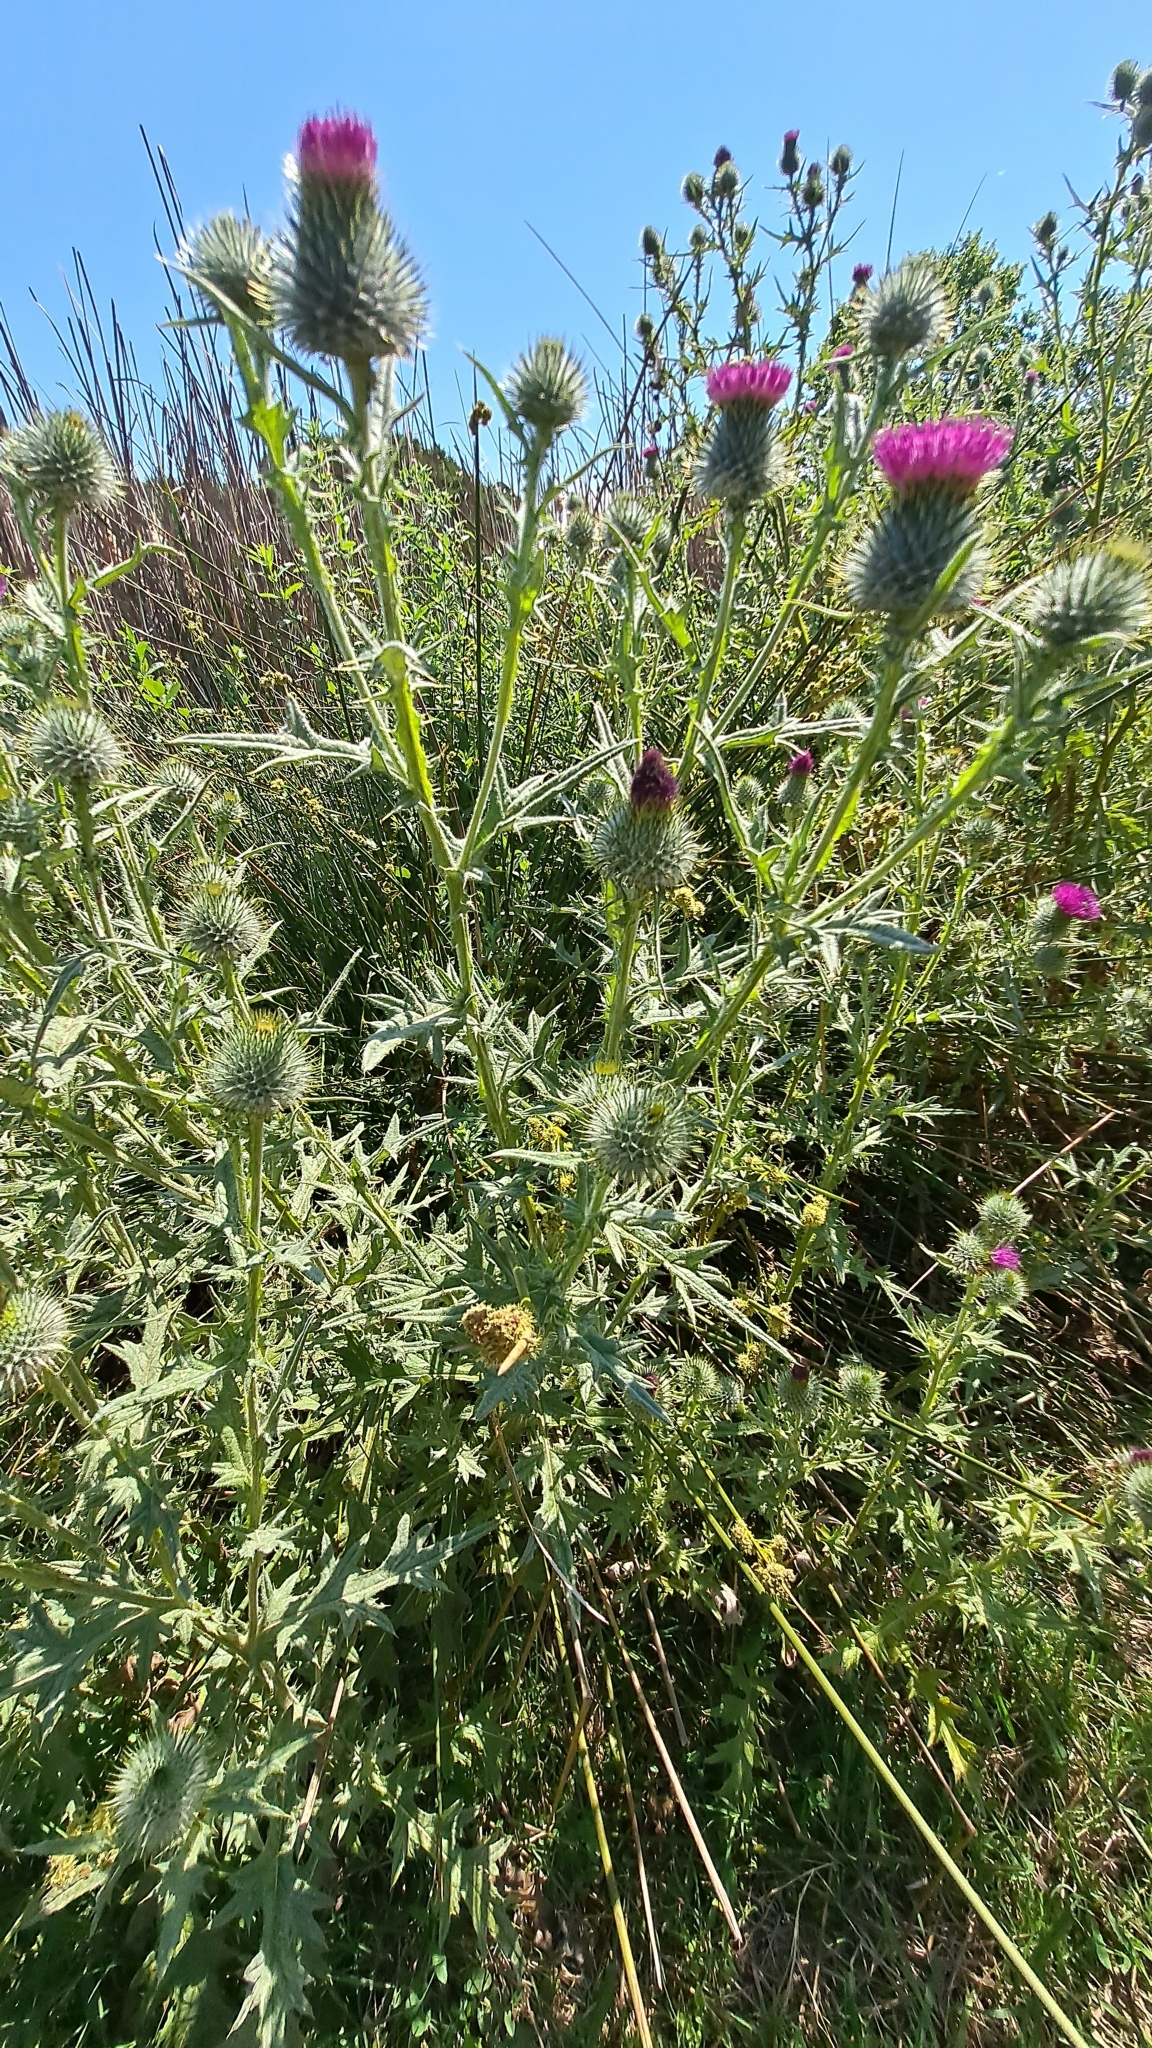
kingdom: Plantae
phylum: Tracheophyta
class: Magnoliopsida
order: Asterales
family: Asteraceae
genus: Cirsium
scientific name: Cirsium vulgare
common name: Bull thistle
